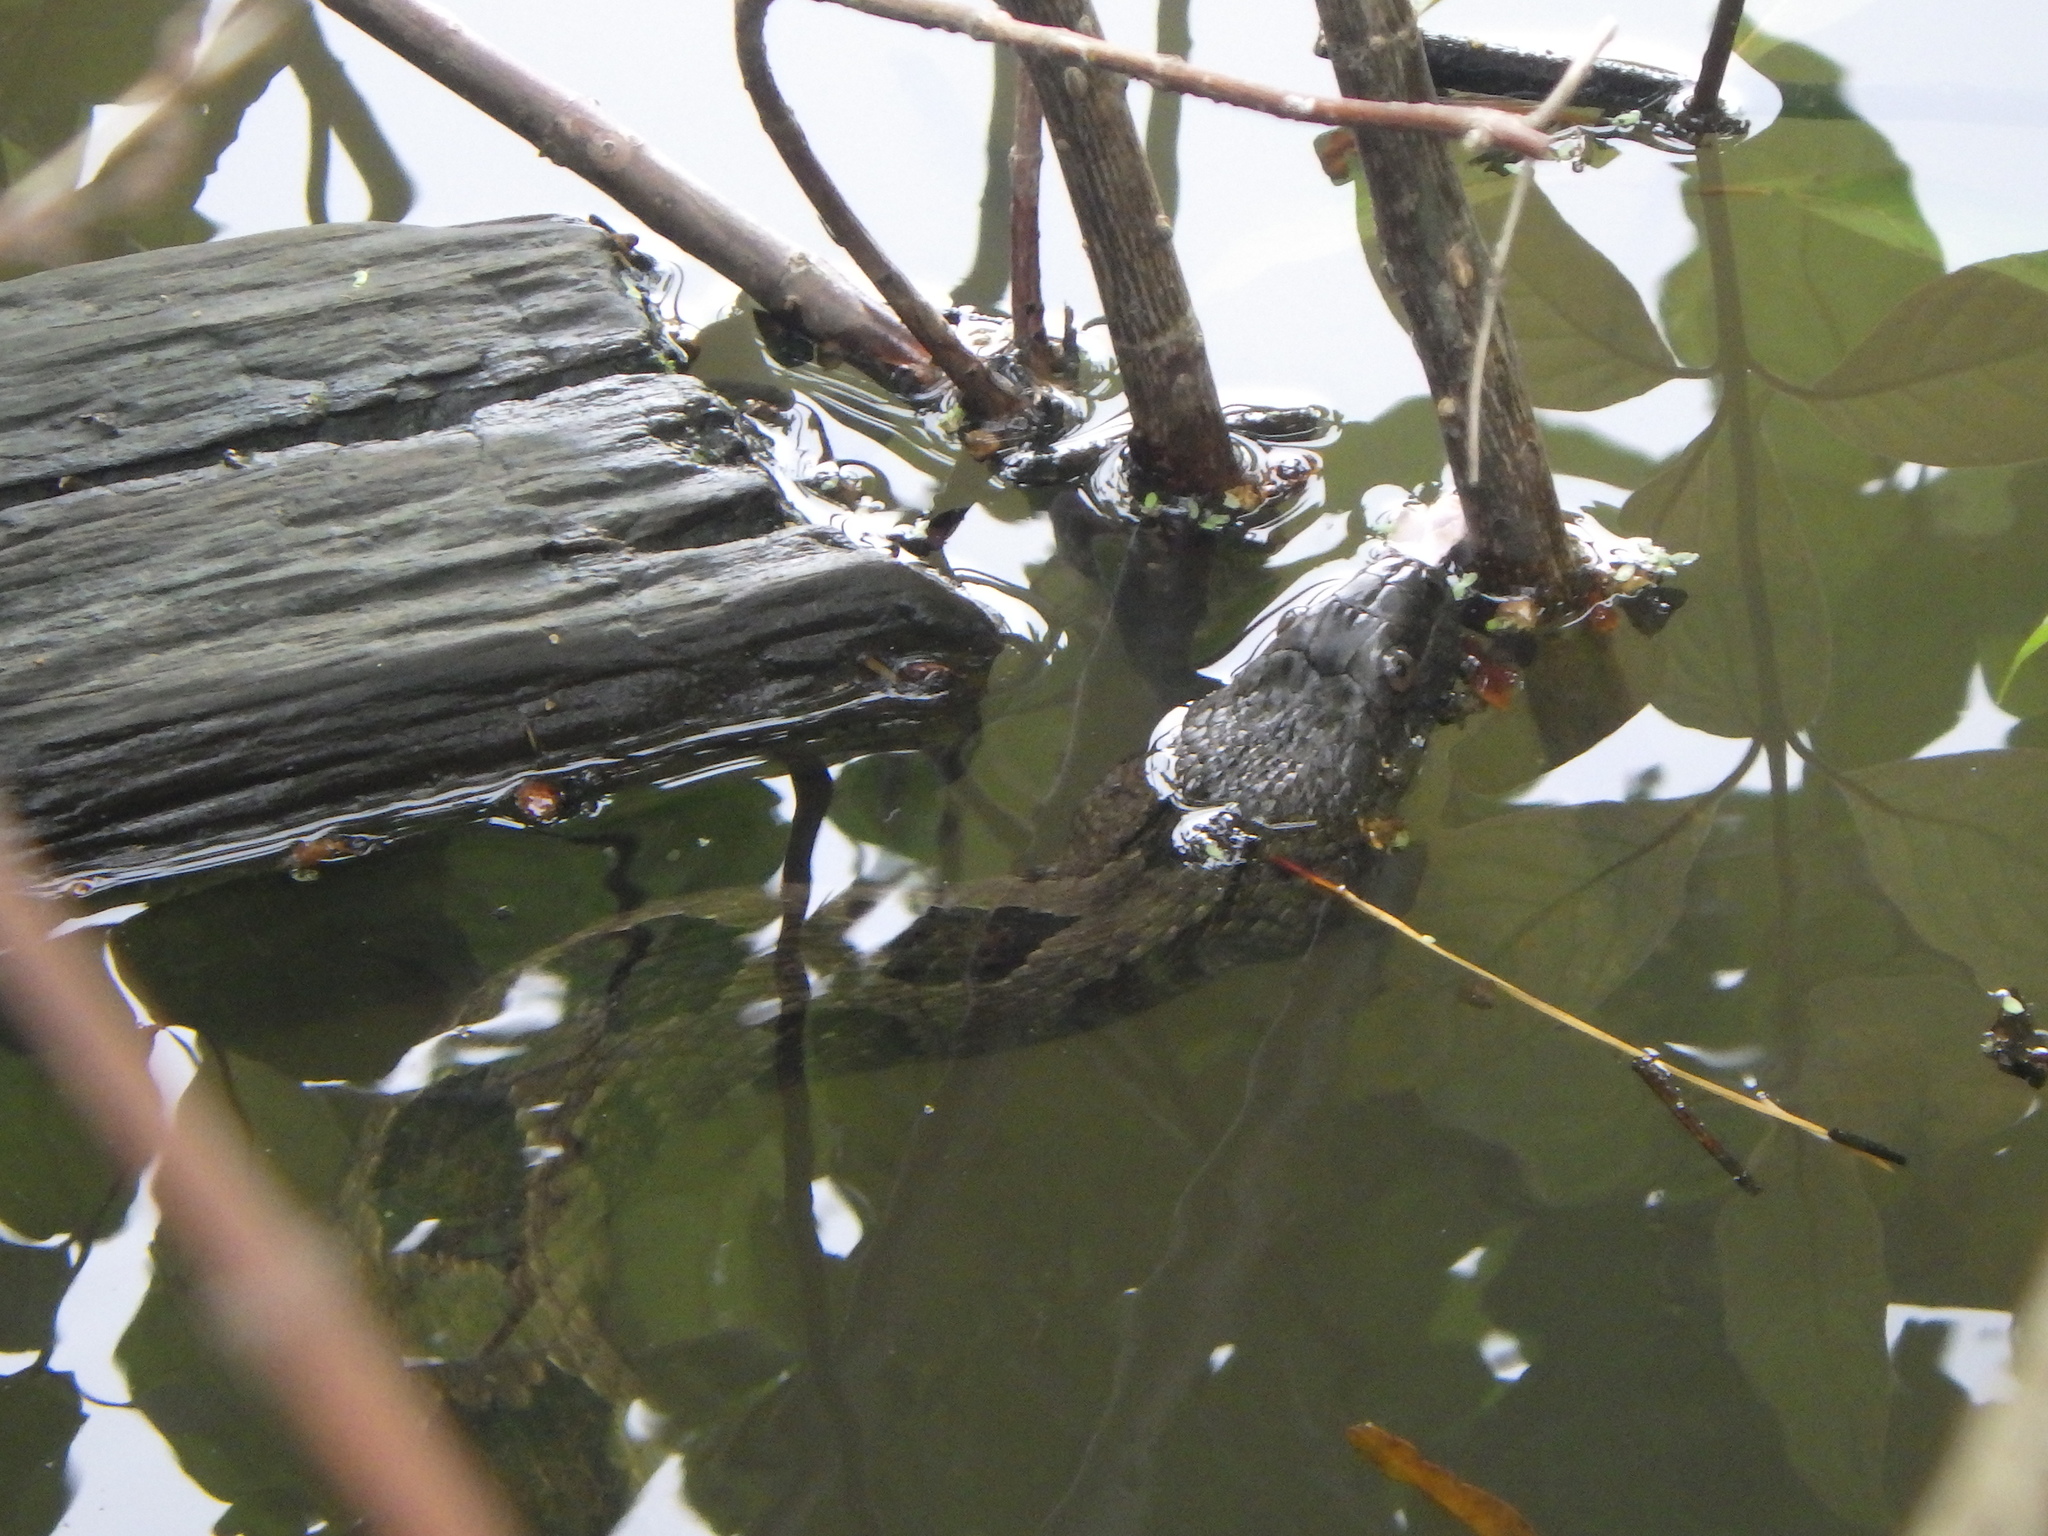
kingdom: Animalia
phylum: Chordata
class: Squamata
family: Colubridae
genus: Nerodia
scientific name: Nerodia taxispilota
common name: Brown water snake
